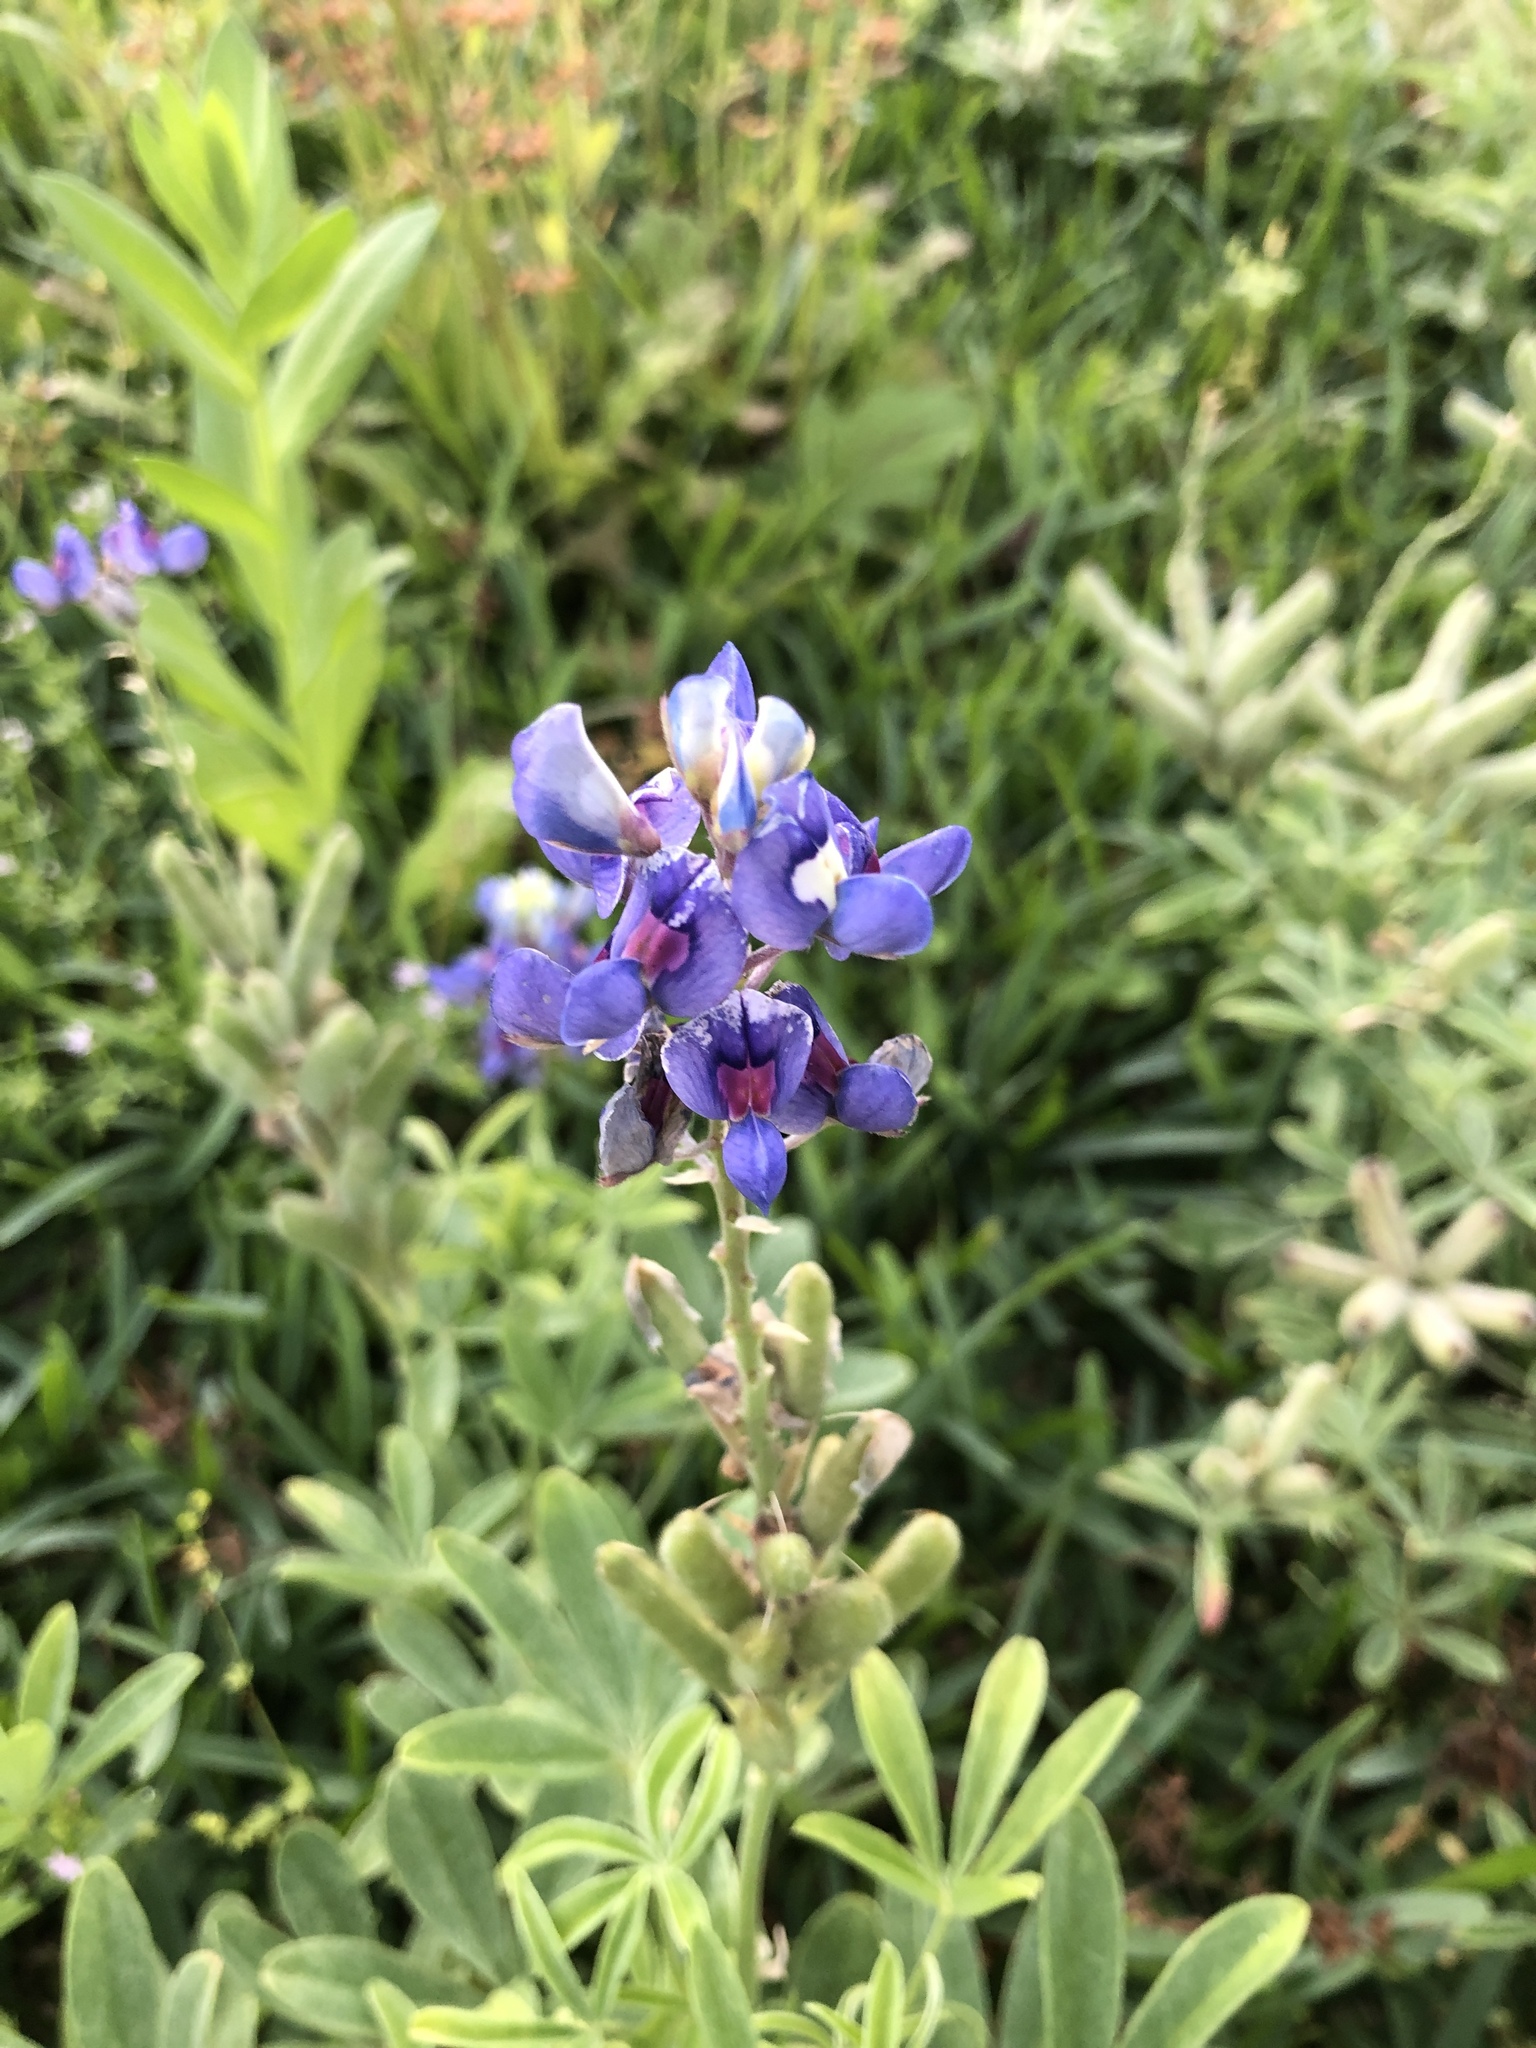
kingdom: Plantae
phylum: Tracheophyta
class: Magnoliopsida
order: Fabales
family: Fabaceae
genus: Lupinus
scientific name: Lupinus texensis
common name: Texas bluebonnet
